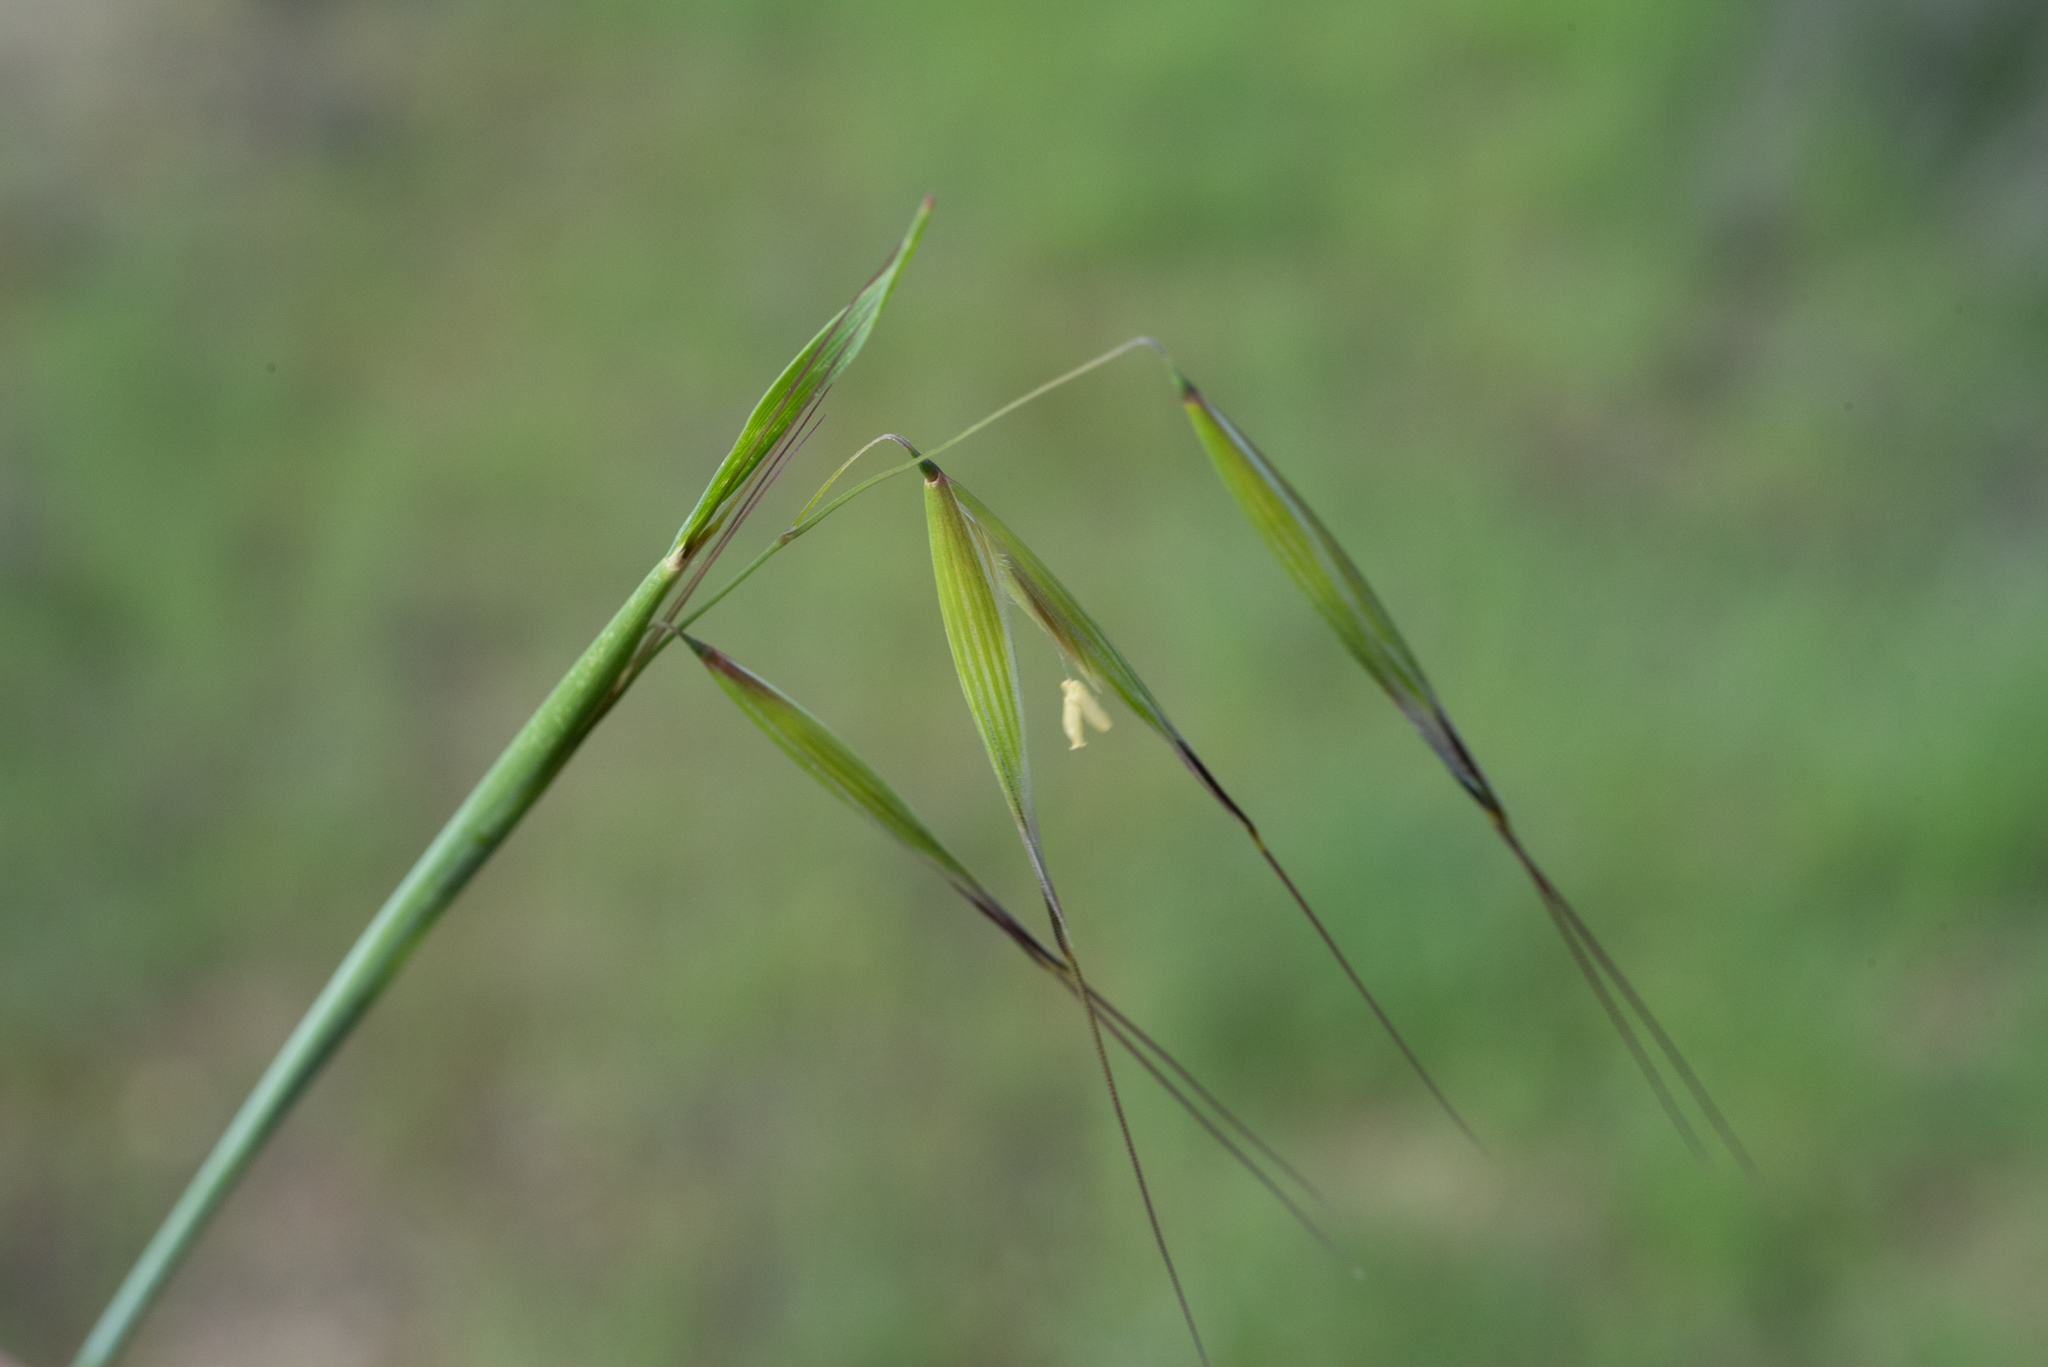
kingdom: Plantae
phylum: Tracheophyta
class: Liliopsida
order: Poales
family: Poaceae
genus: Avena
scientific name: Avena barbata
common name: Slender oat
